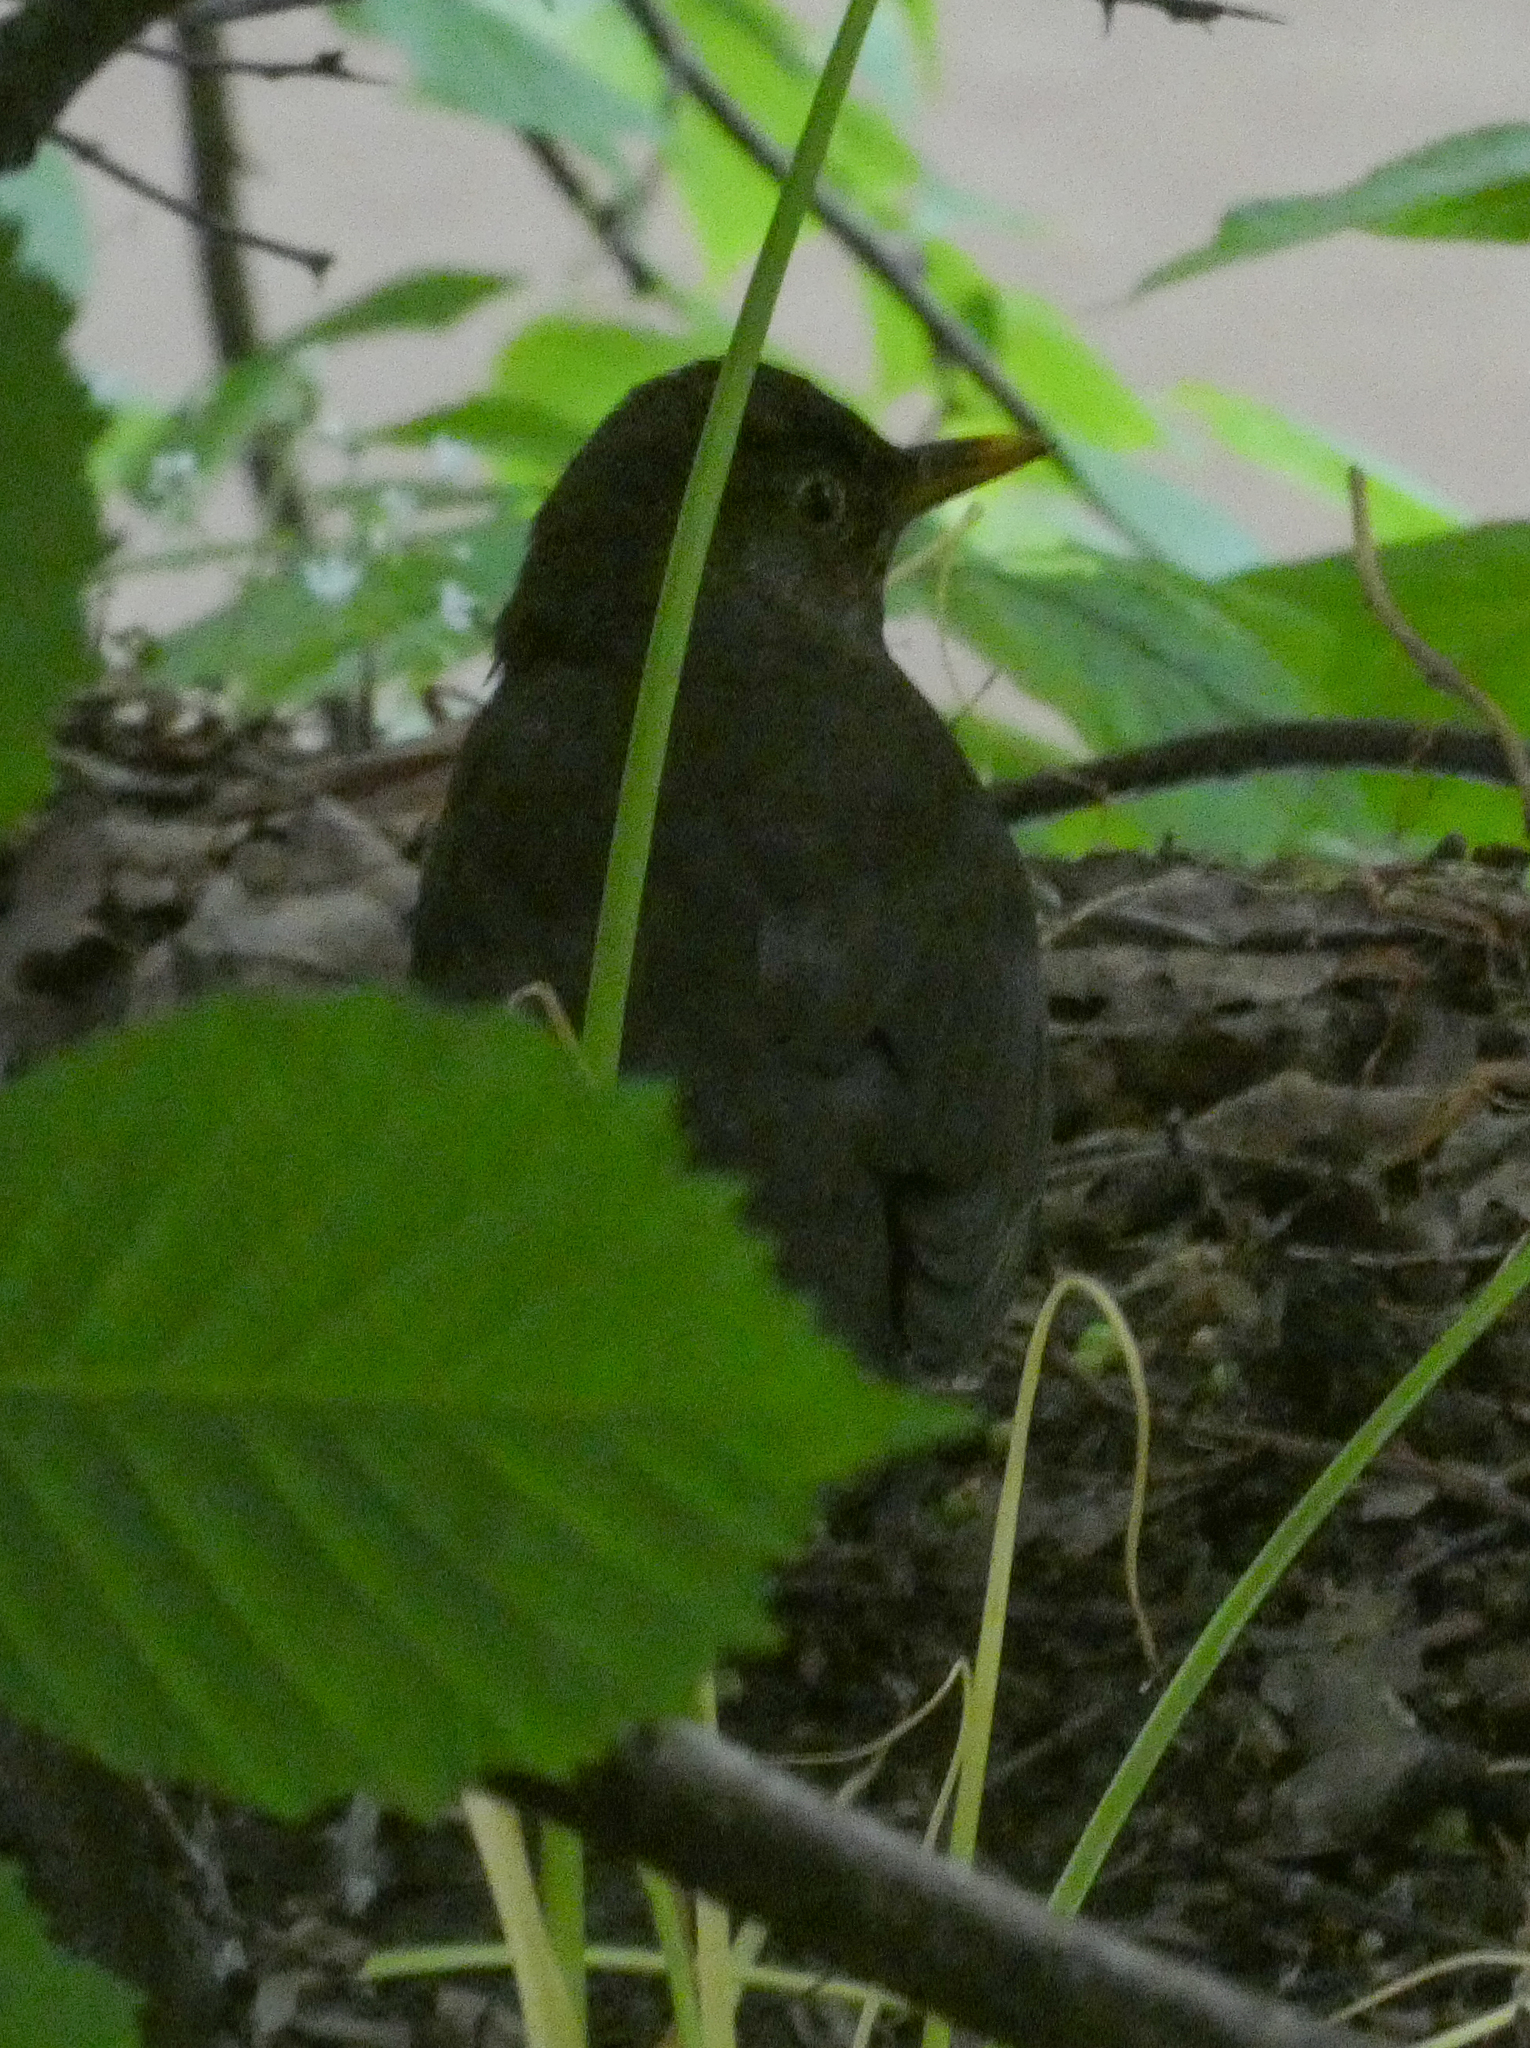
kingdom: Animalia
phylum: Chordata
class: Aves
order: Passeriformes
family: Turdidae
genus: Turdus
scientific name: Turdus merula
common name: Common blackbird
